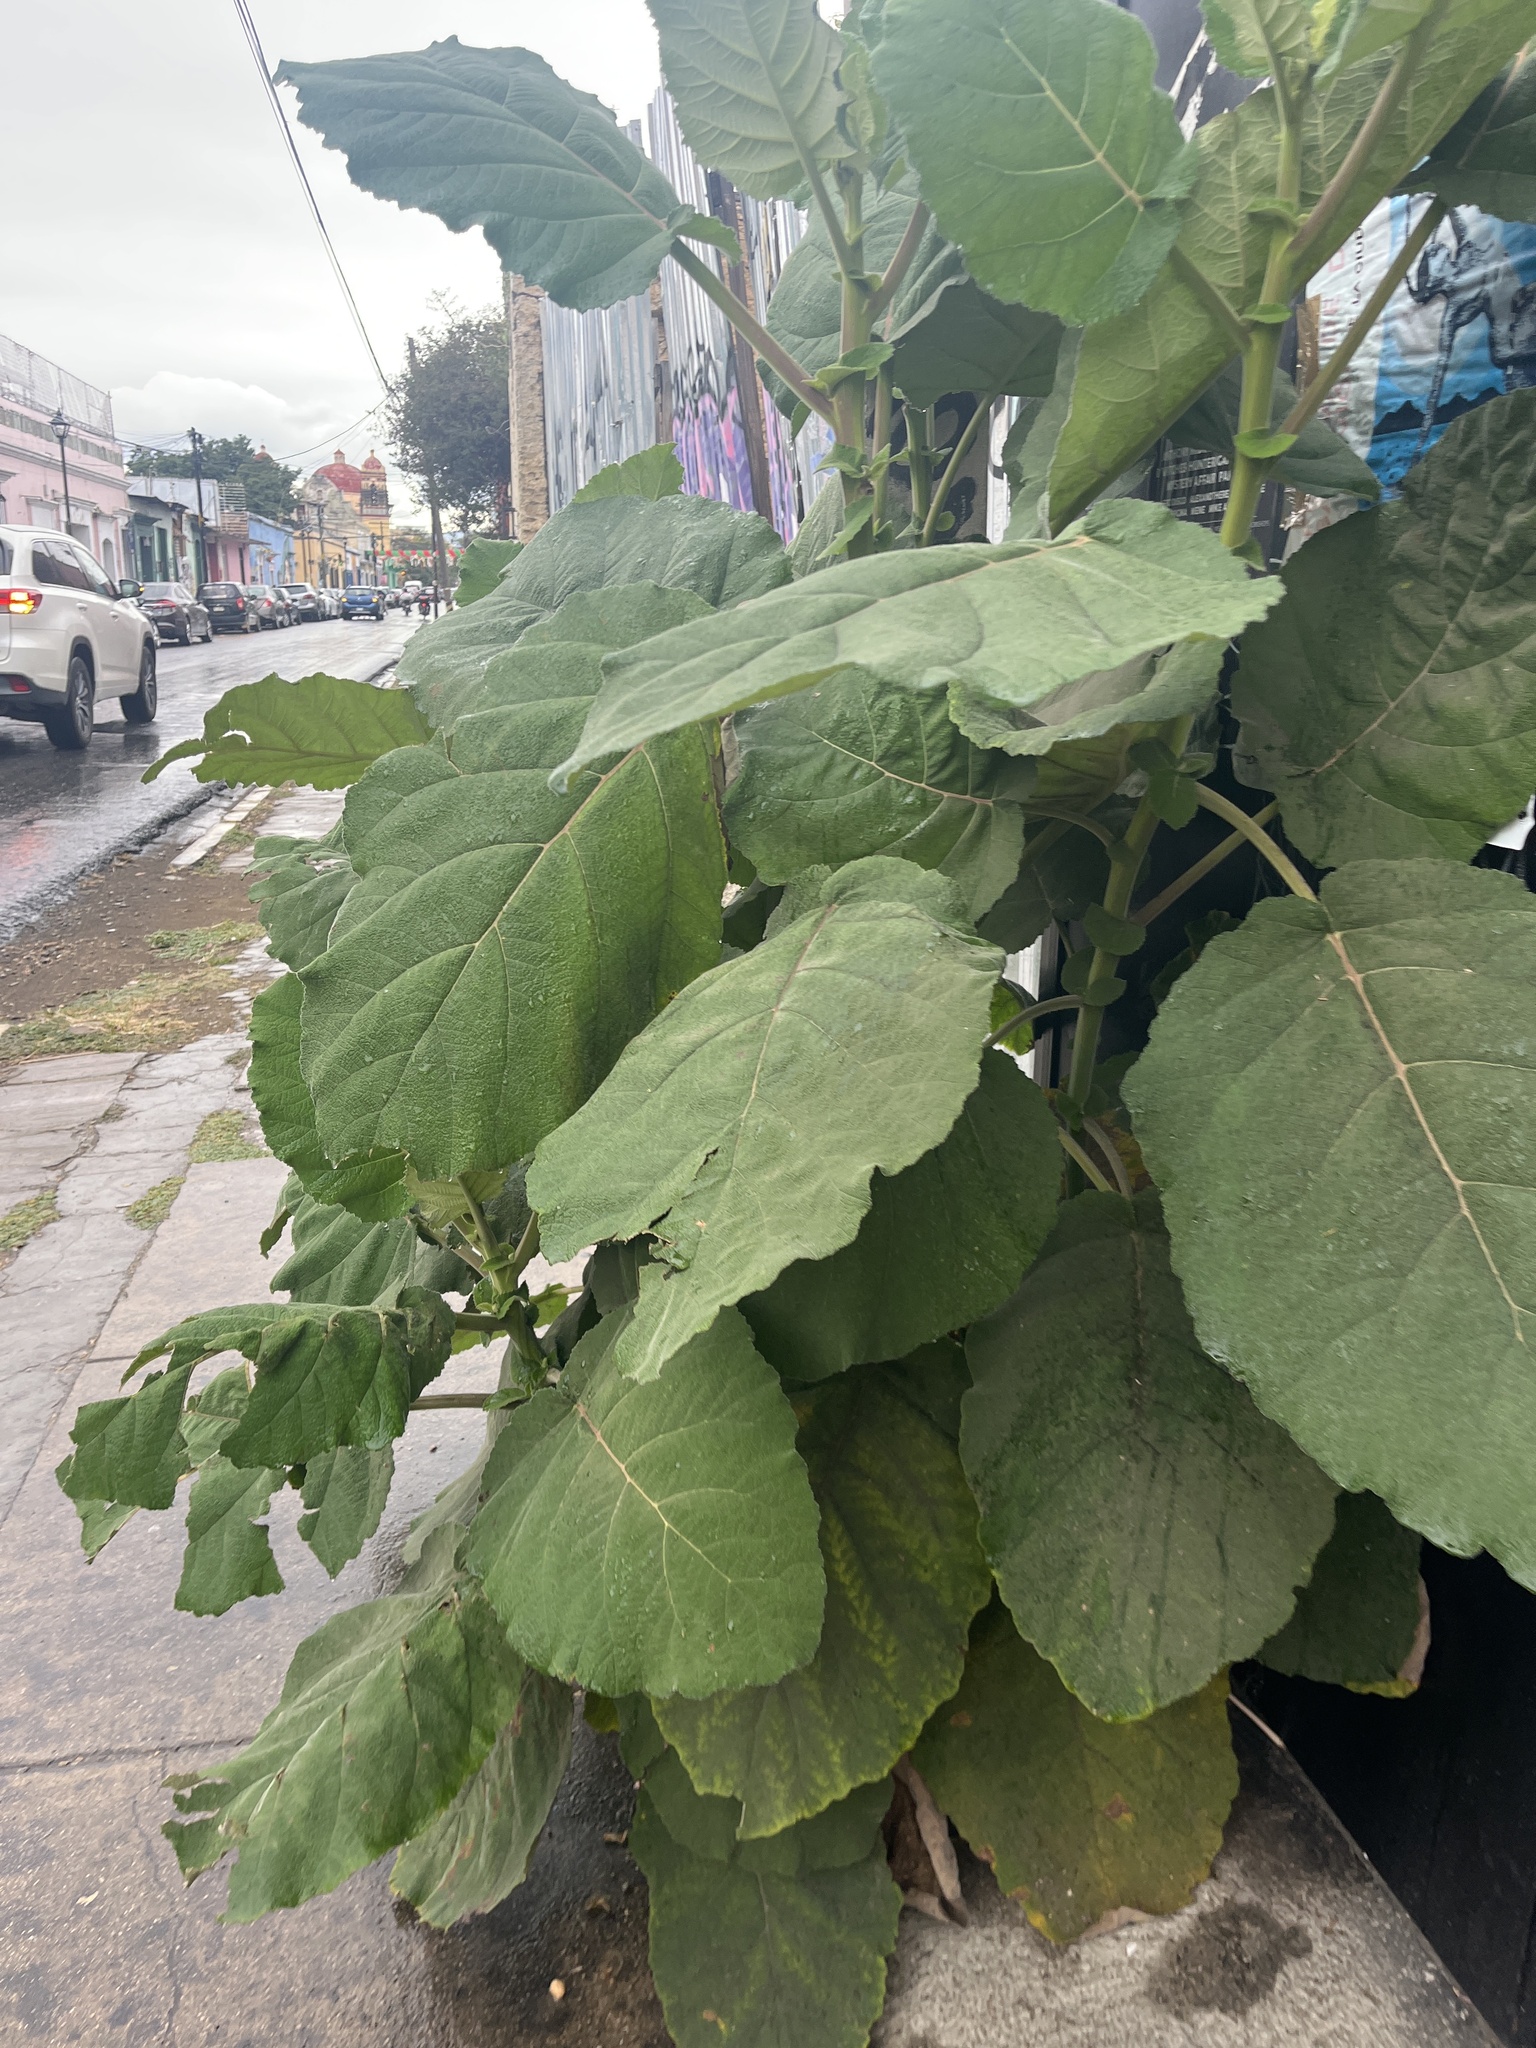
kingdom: Plantae
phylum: Tracheophyta
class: Magnoliopsida
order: Boraginales
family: Namaceae
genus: Wigandia
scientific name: Wigandia urens
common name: Caracus wigandia
